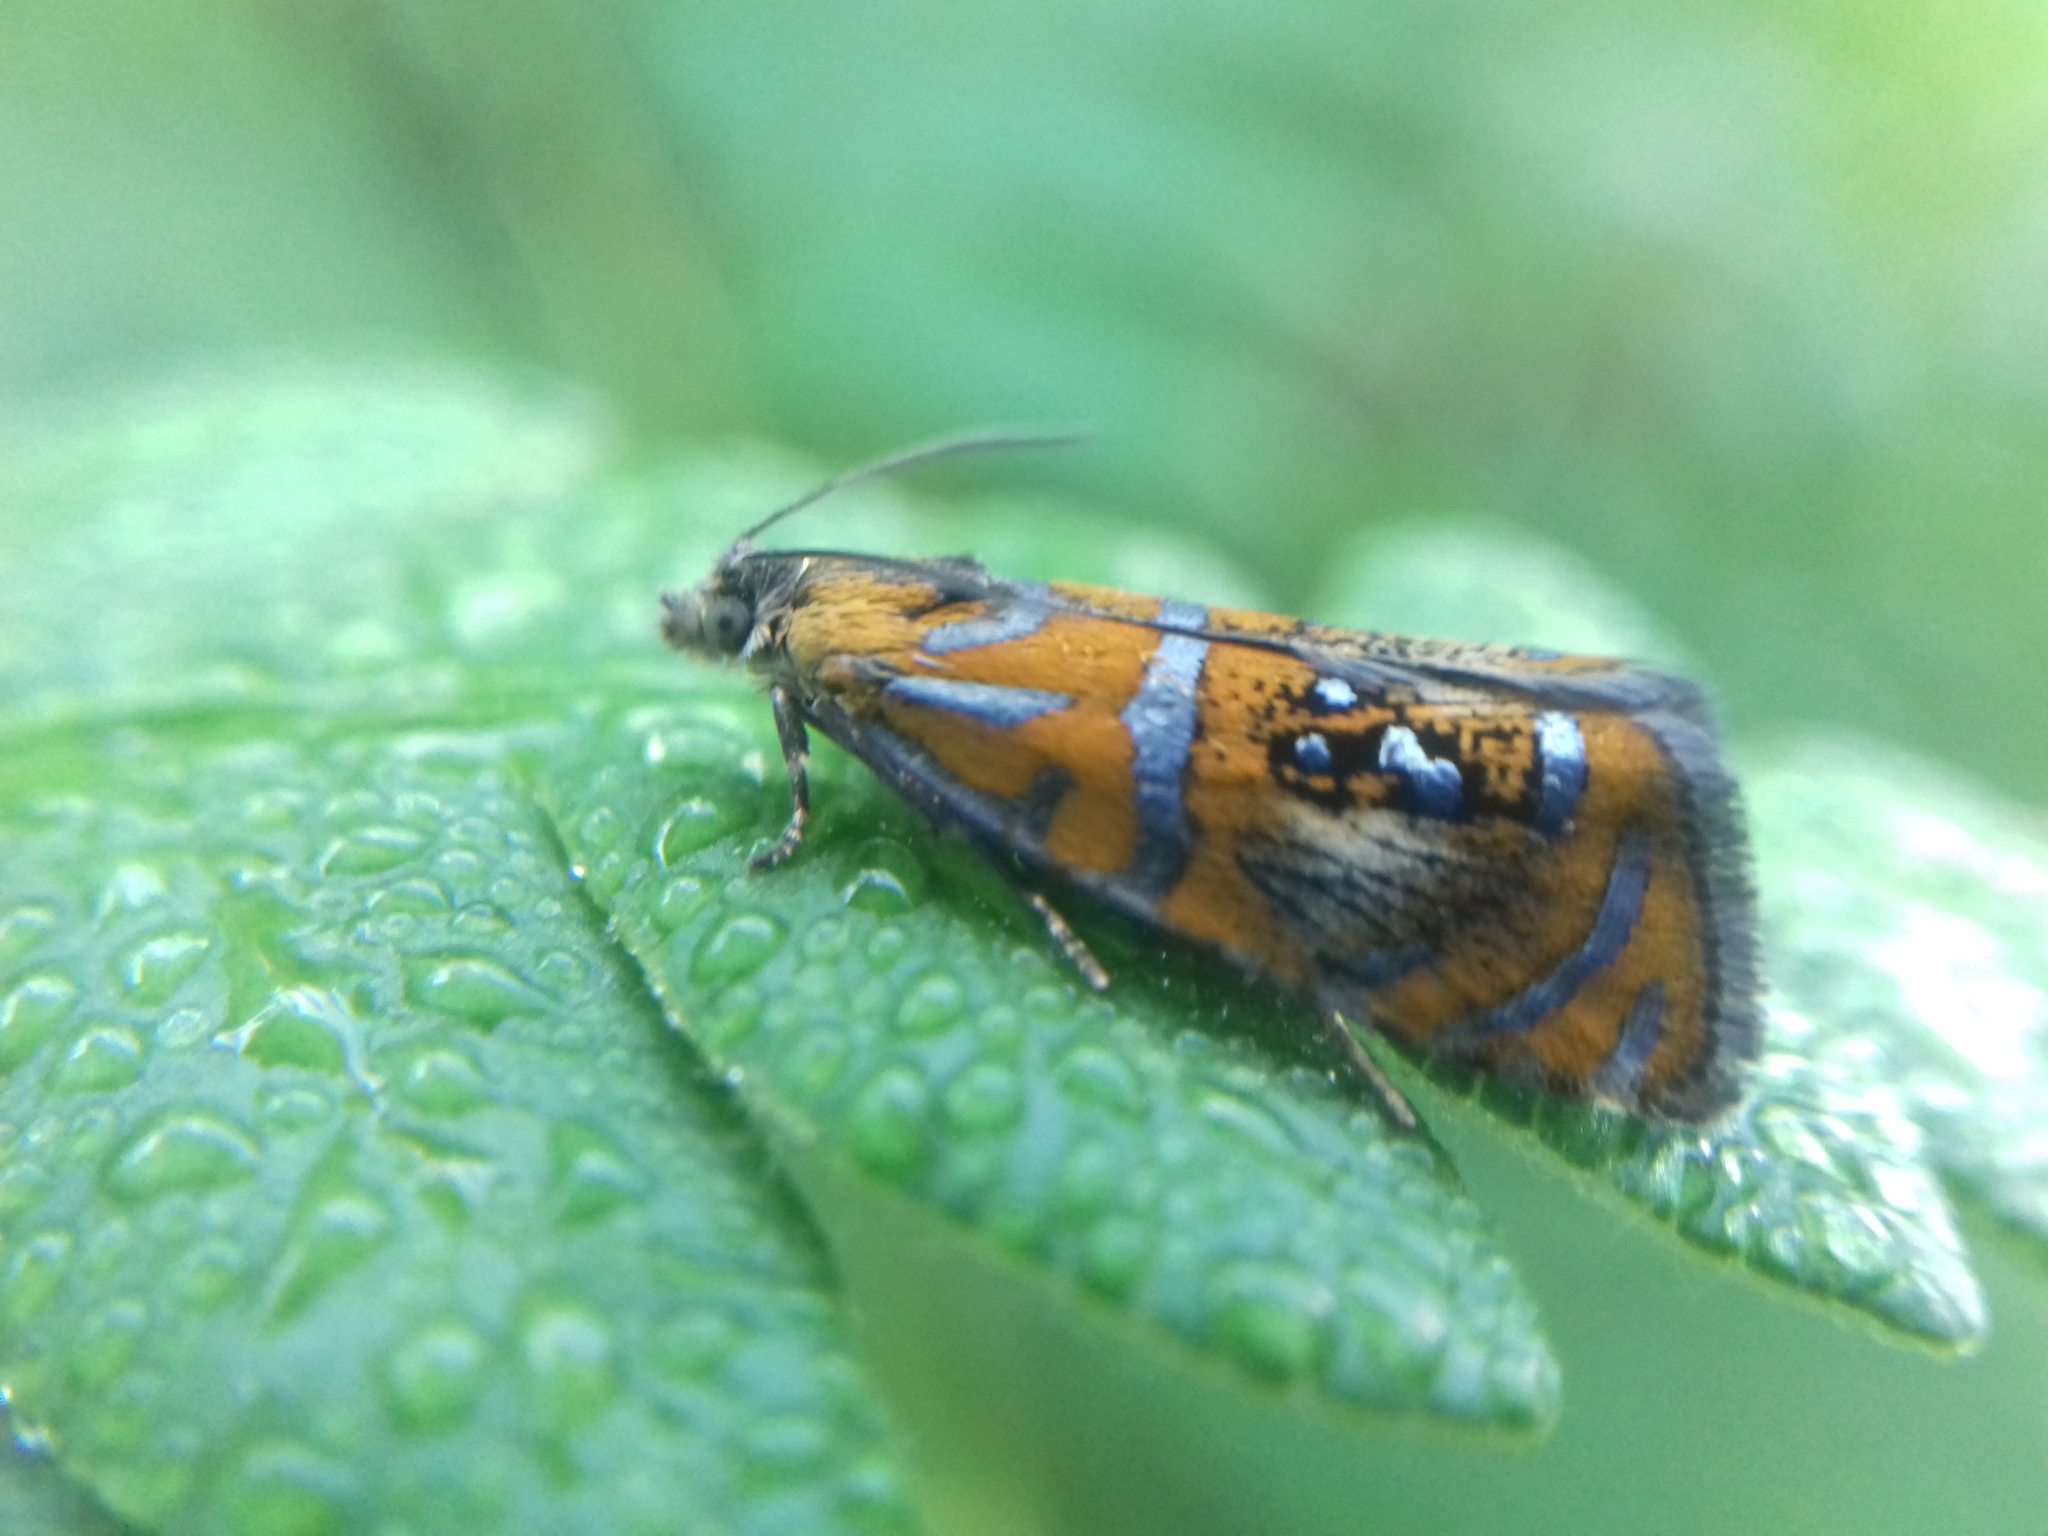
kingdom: Animalia
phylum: Arthropoda
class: Insecta
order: Lepidoptera
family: Tortricidae
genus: Olethreutes
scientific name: Olethreutes subtilana
